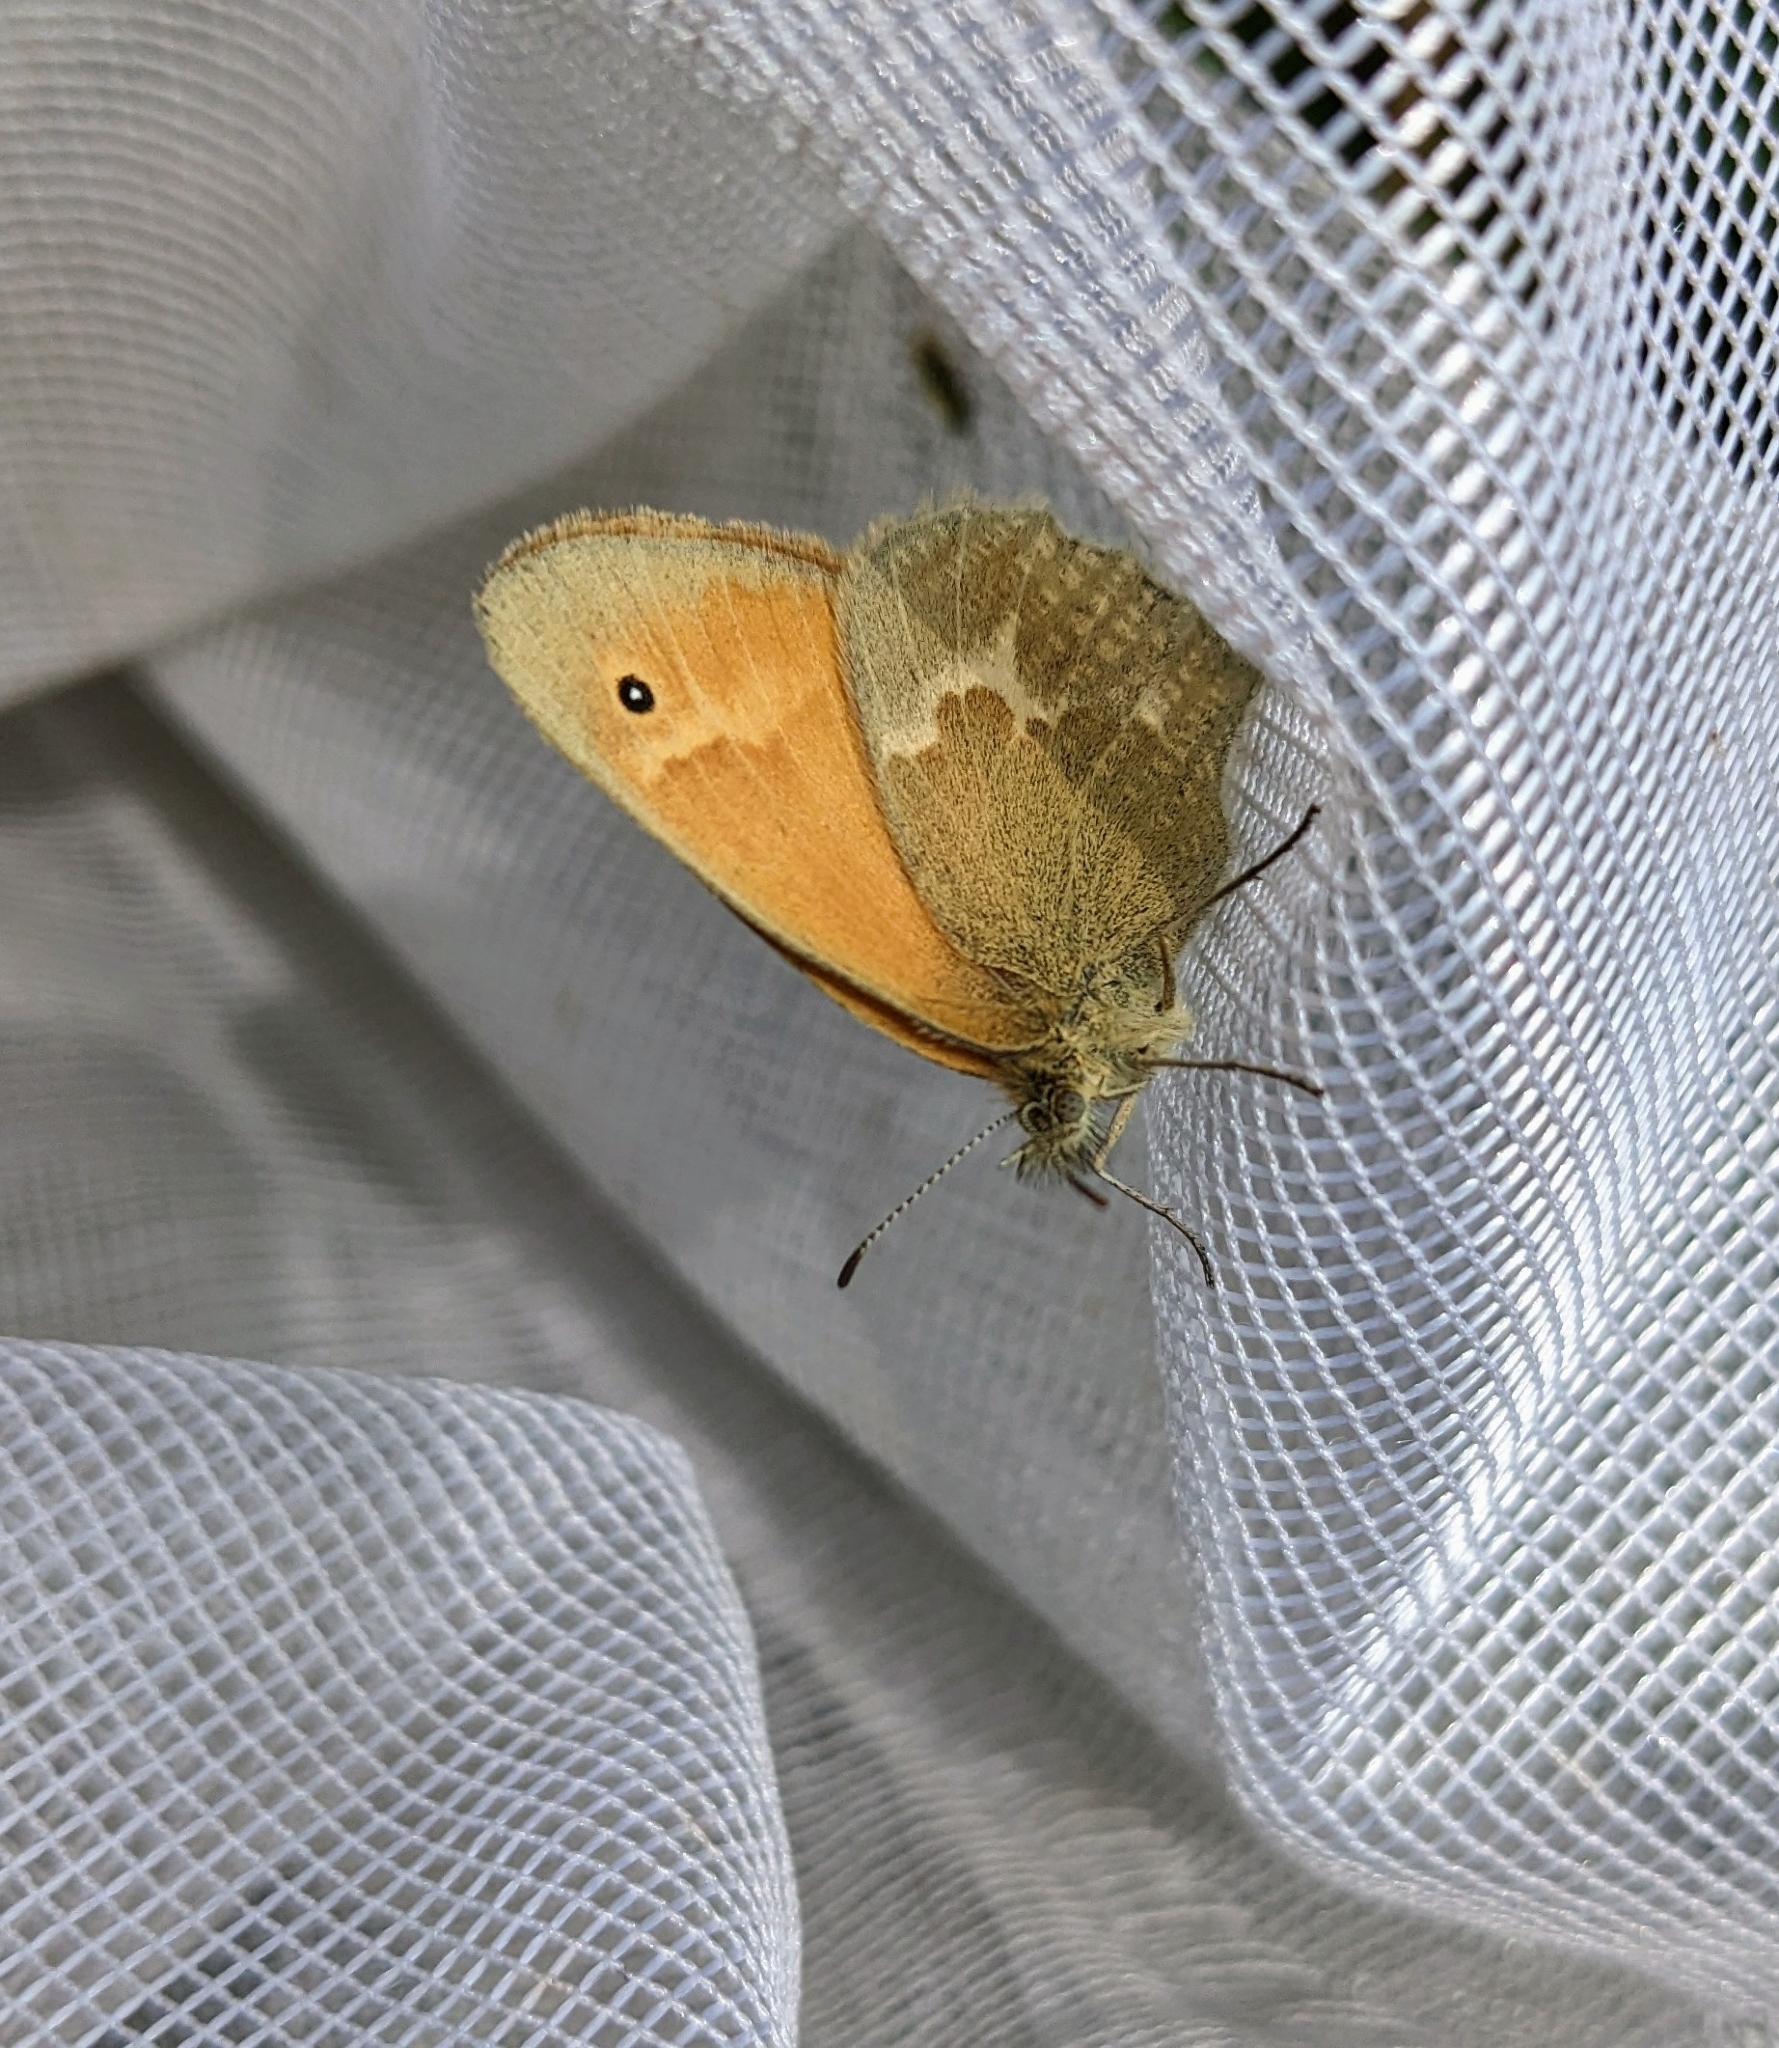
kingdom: Animalia
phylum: Arthropoda
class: Insecta
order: Lepidoptera
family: Nymphalidae
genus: Coenonympha
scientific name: Coenonympha california
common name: Common ringlet
